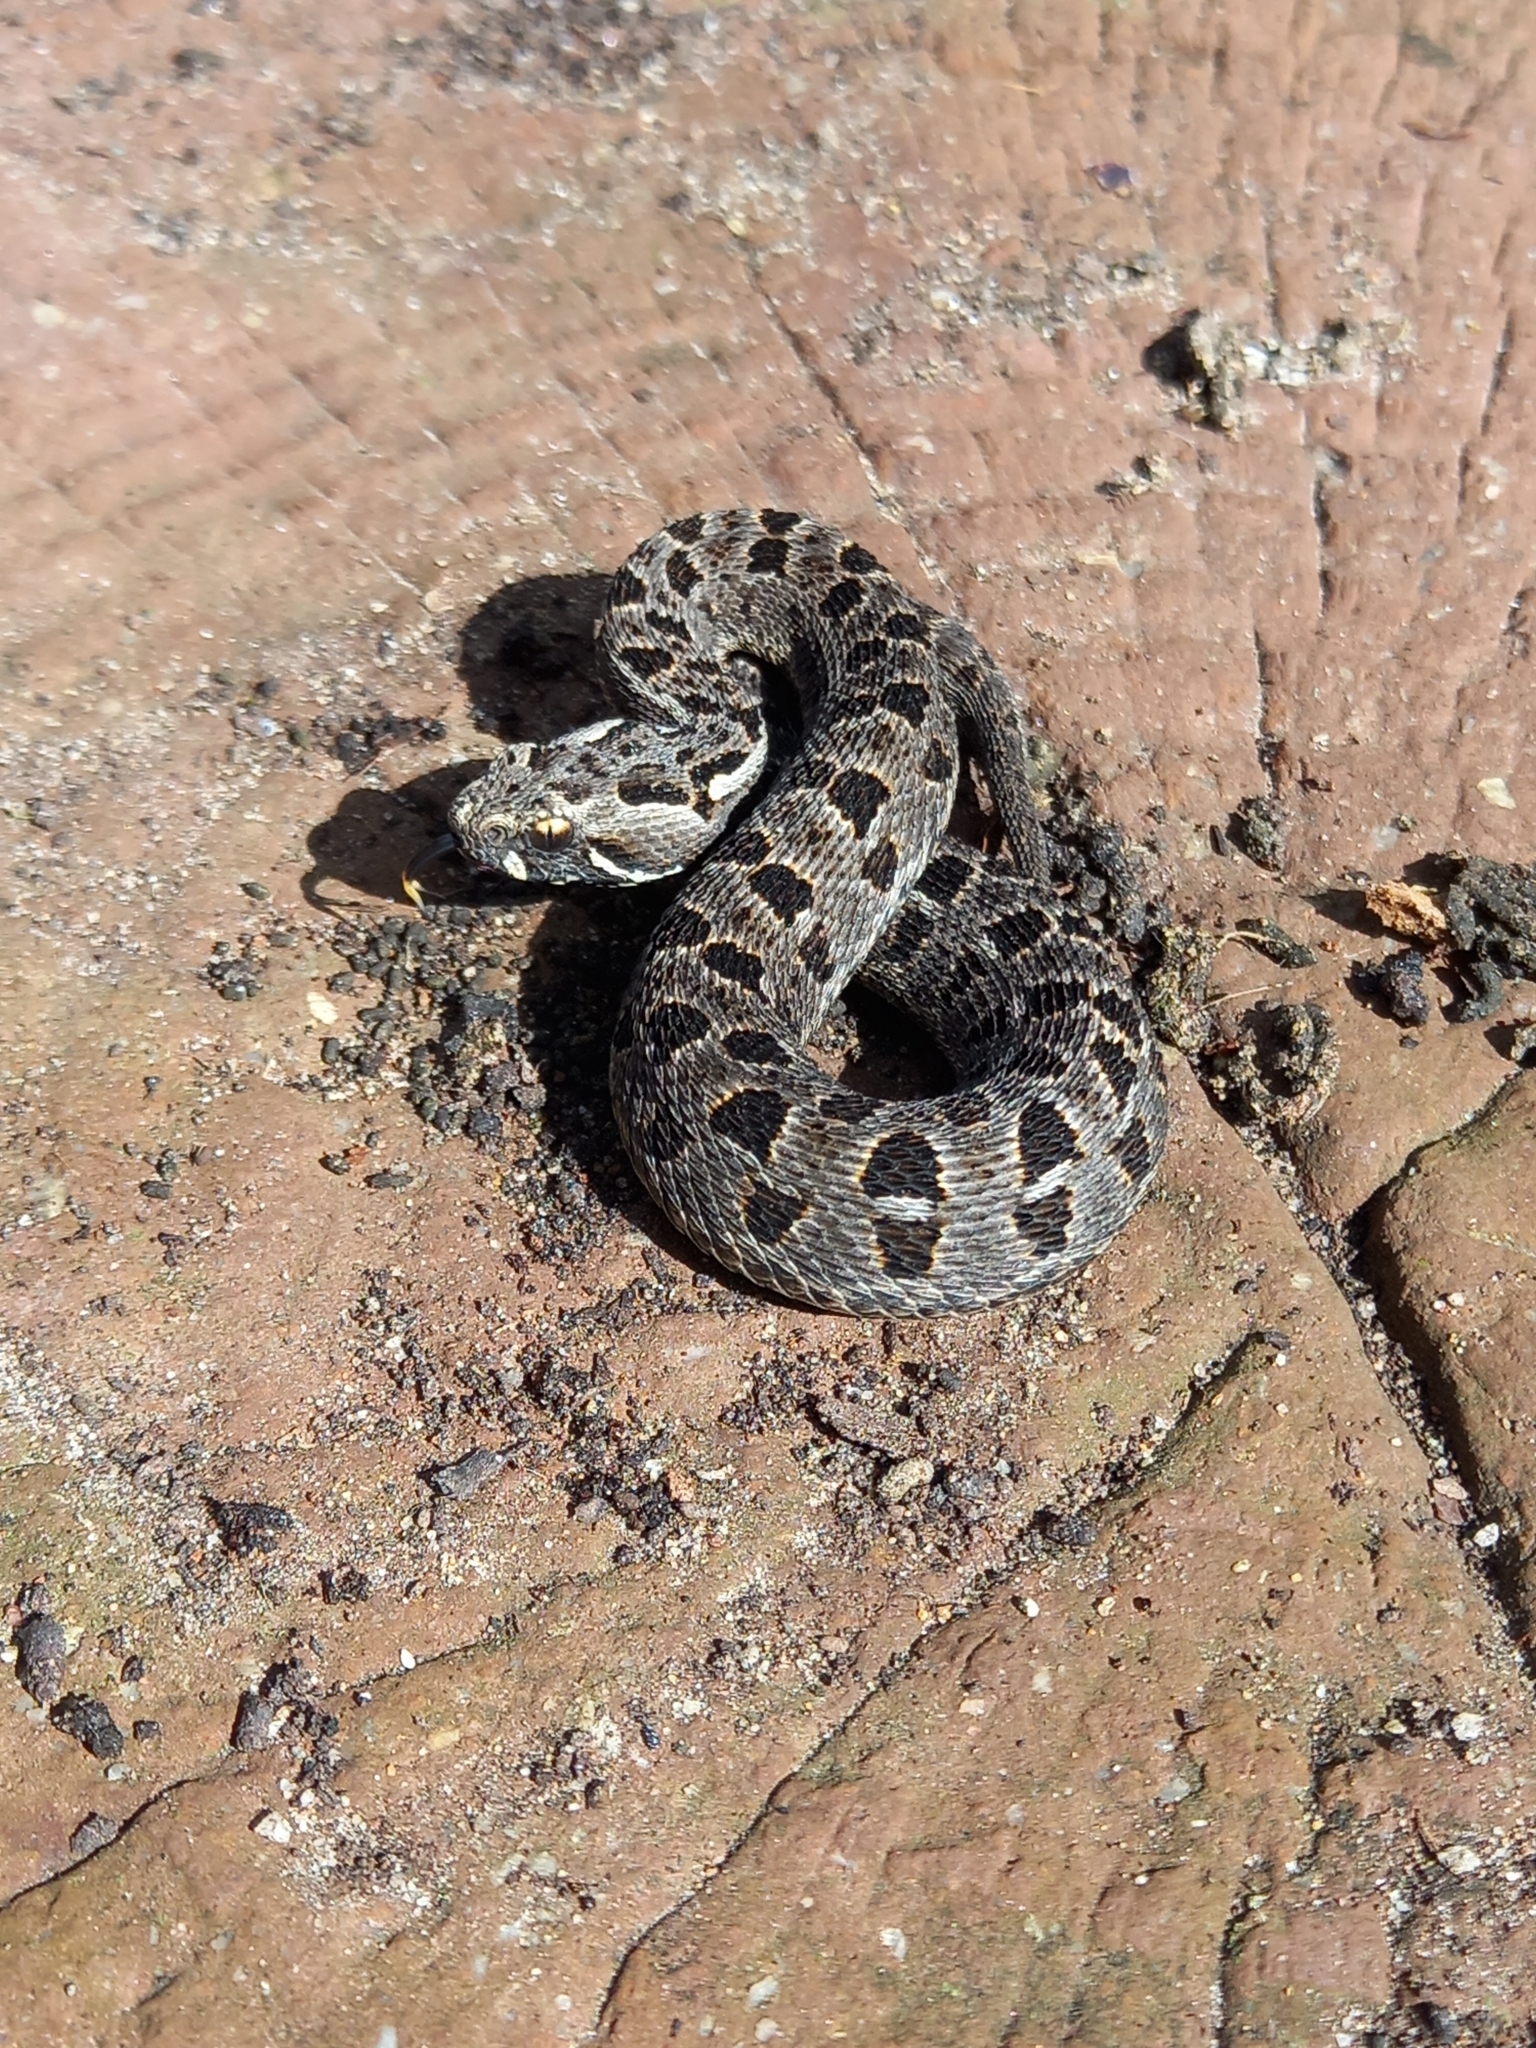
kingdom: Animalia
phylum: Chordata
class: Squamata
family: Viperidae
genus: Bitis
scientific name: Bitis atropos
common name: Mountain adder
